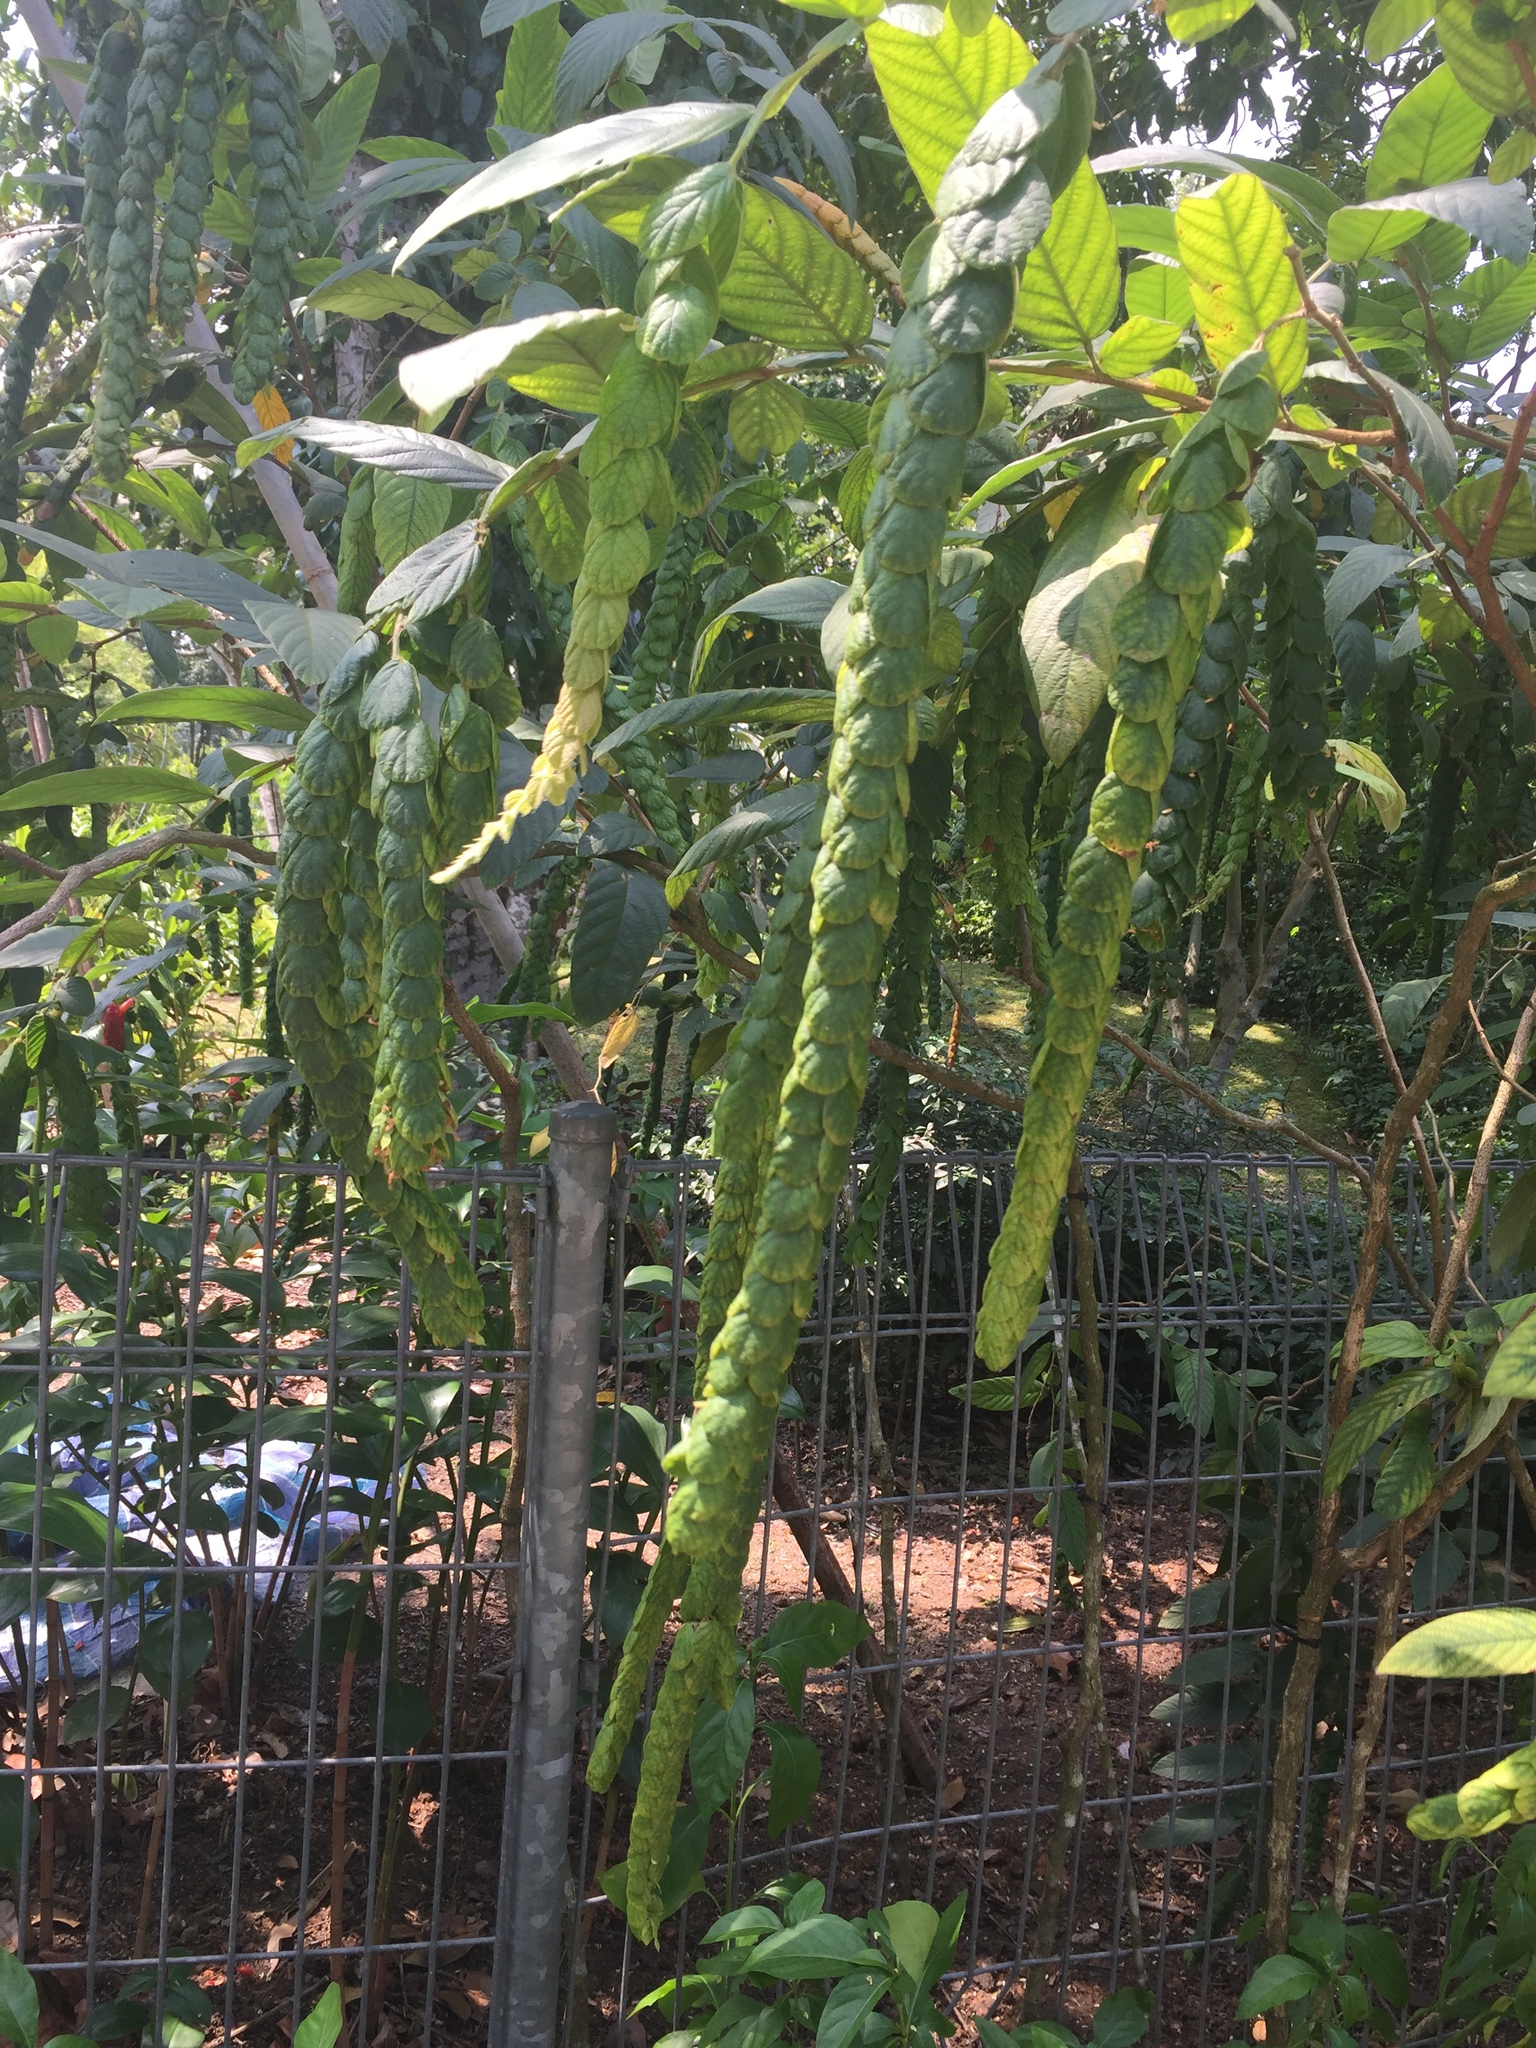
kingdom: Plantae
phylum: Tracheophyta
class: Magnoliopsida
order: Fabales
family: Fabaceae
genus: Phyllodium
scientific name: Phyllodium longipes
